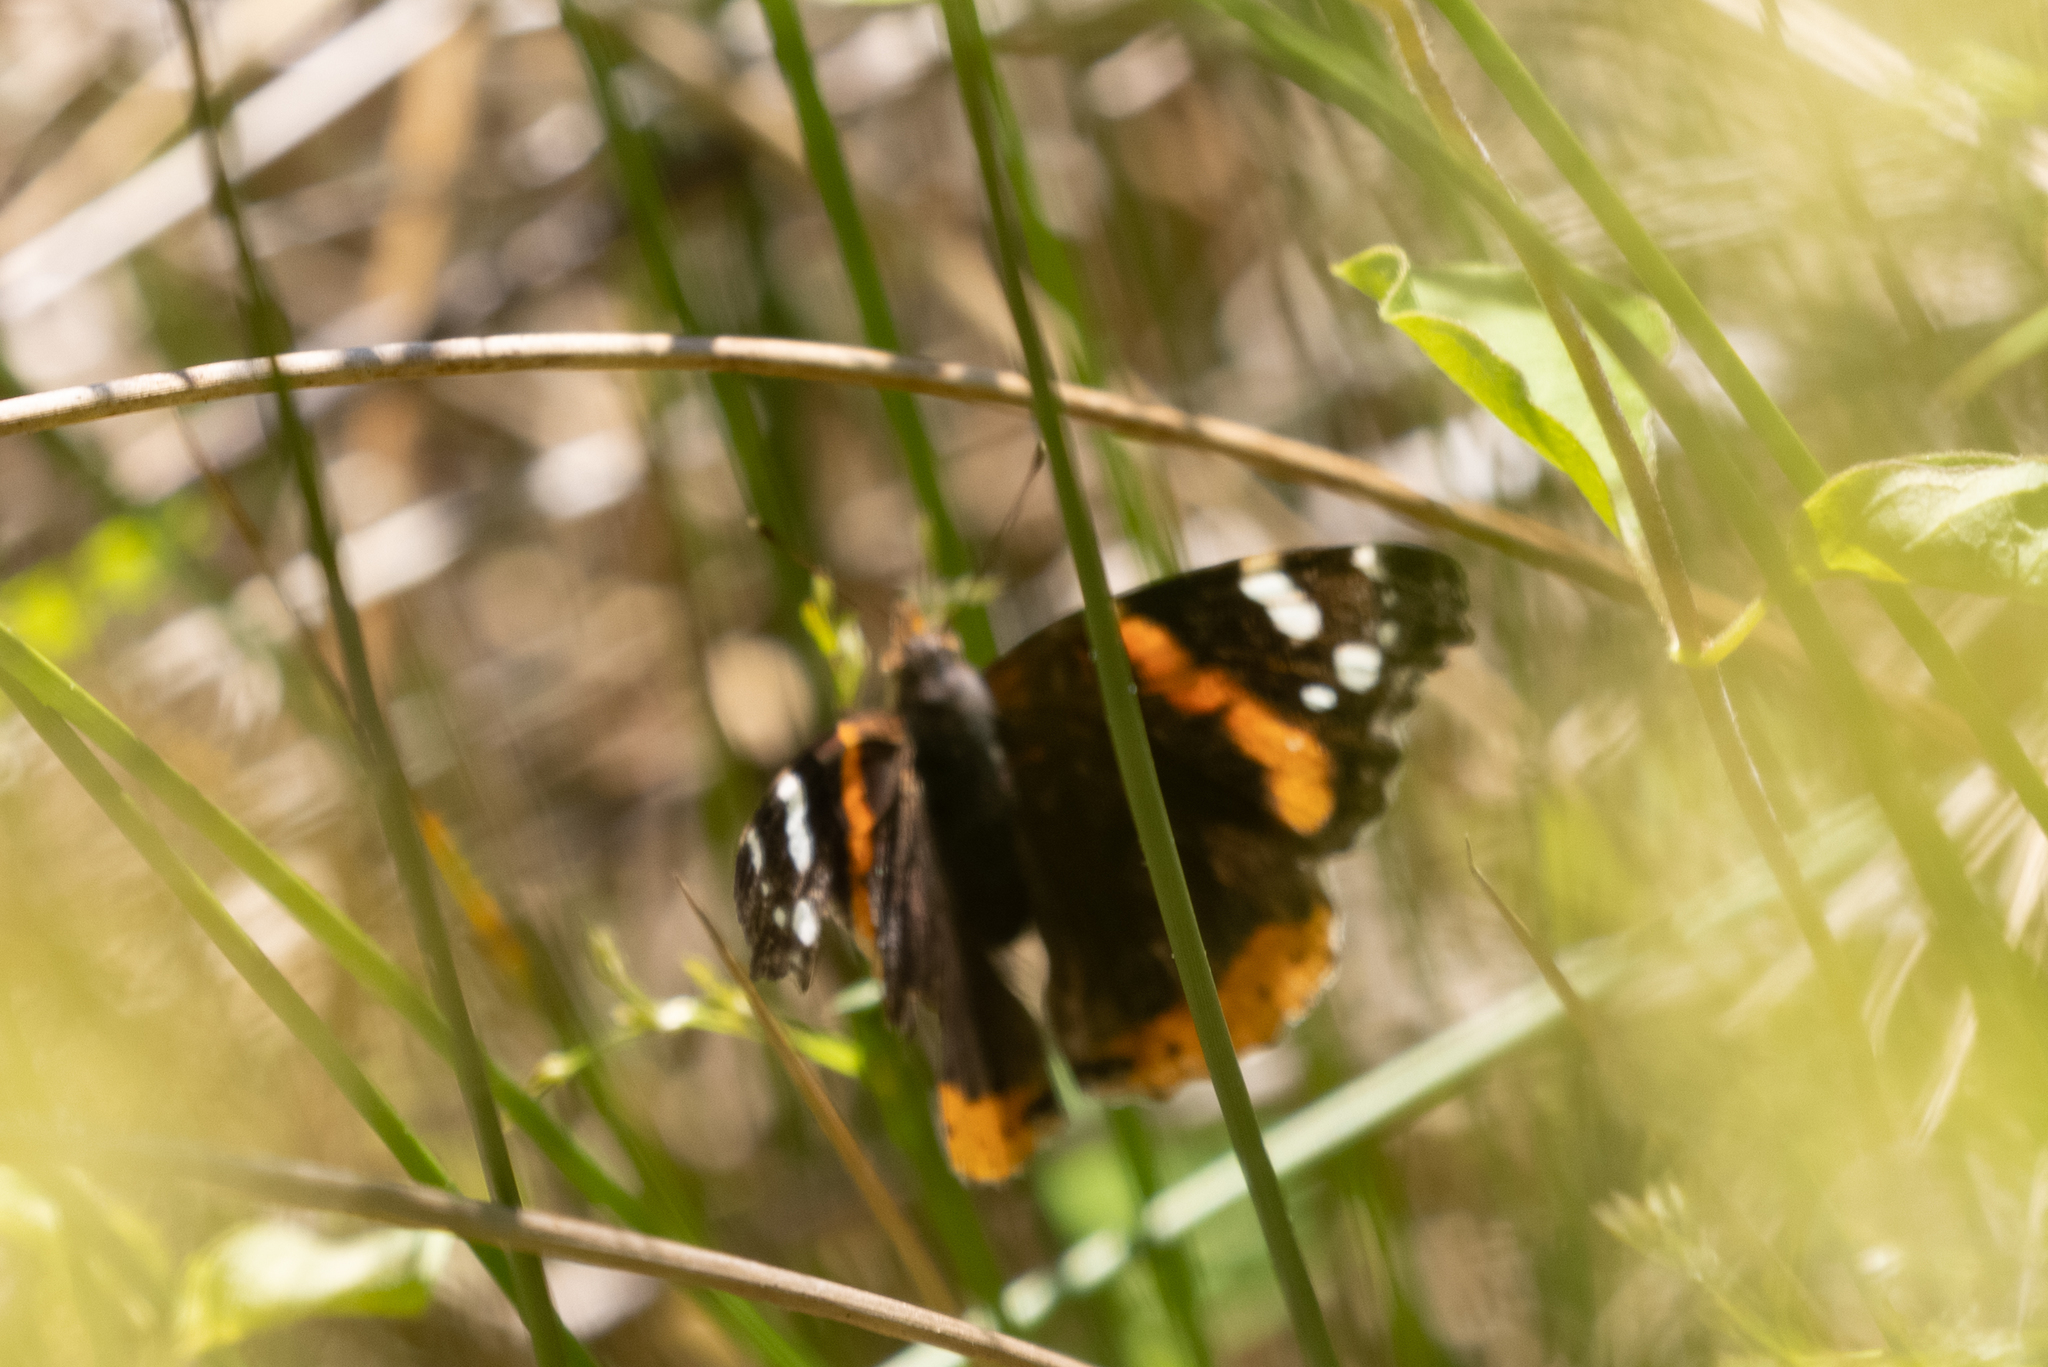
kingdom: Animalia
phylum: Arthropoda
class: Insecta
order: Lepidoptera
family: Nymphalidae
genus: Vanessa
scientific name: Vanessa atalanta
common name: Red admiral
